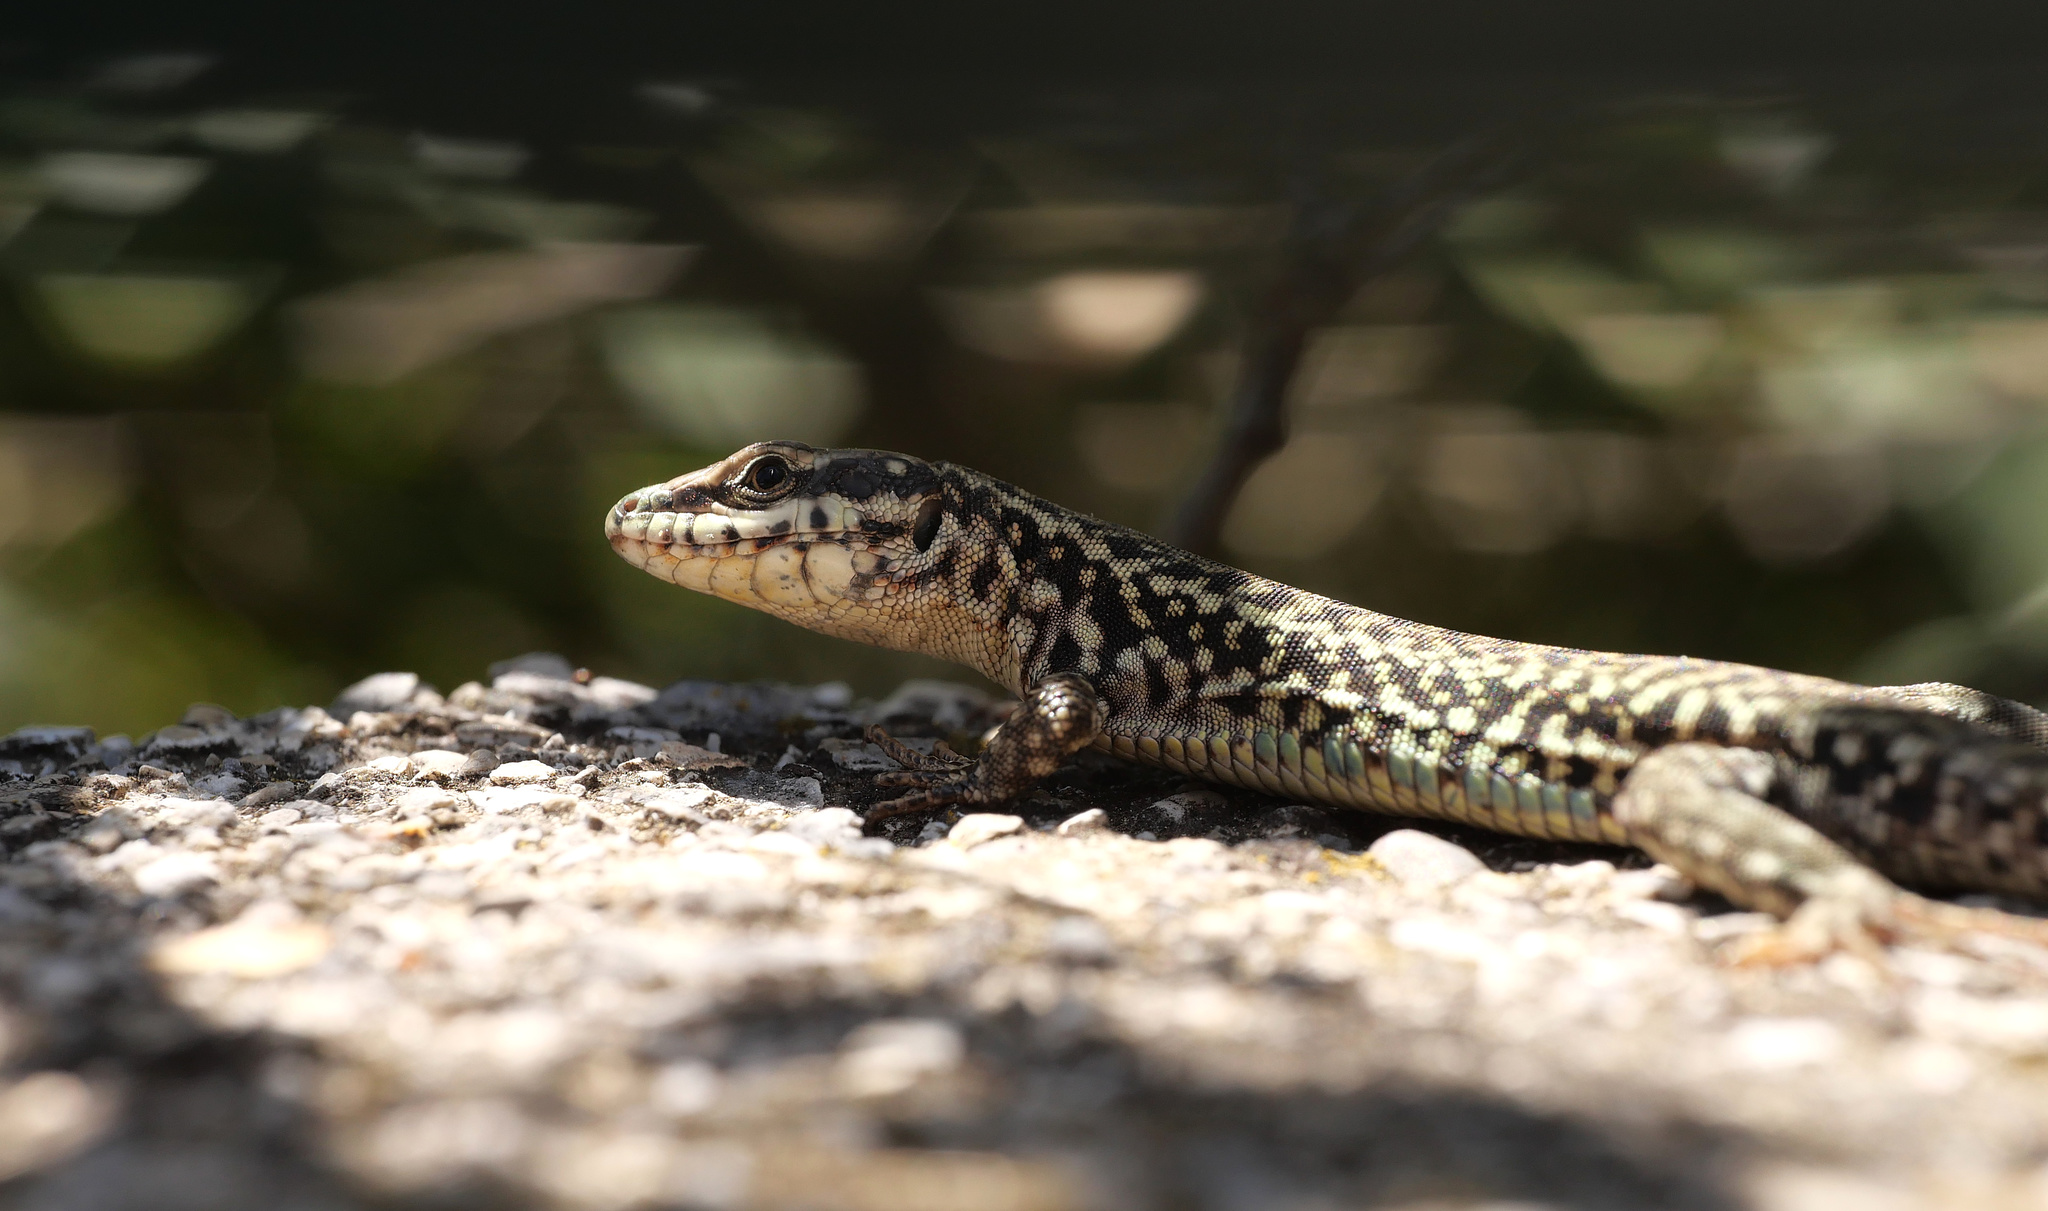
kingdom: Animalia
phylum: Chordata
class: Squamata
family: Lacertidae
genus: Podarcis
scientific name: Podarcis erhardii
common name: Erhard's wall lizard
